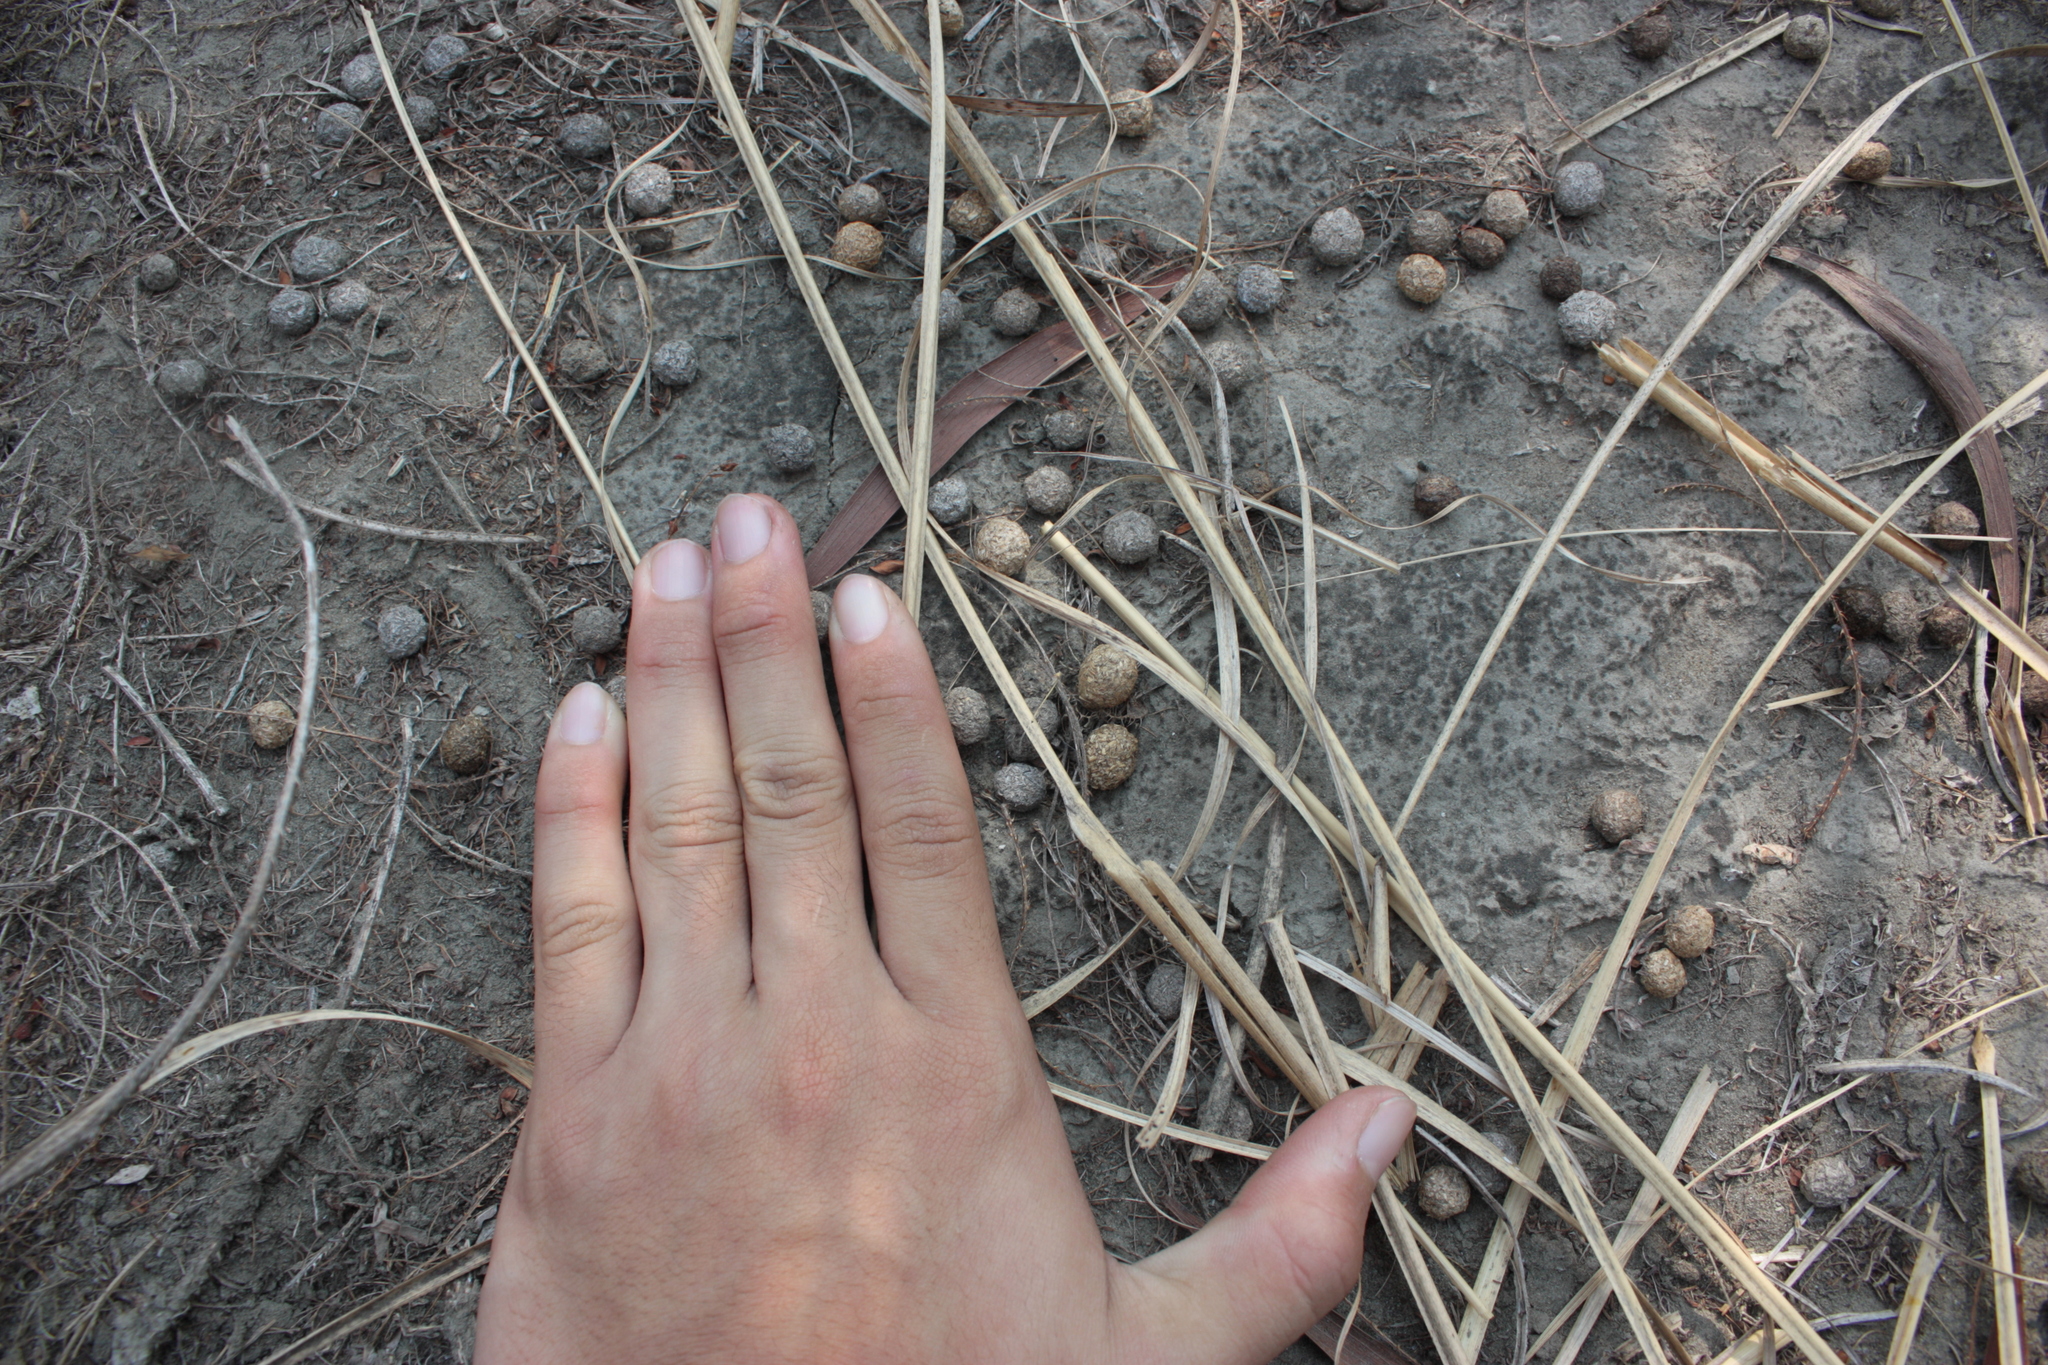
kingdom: Animalia
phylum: Chordata
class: Mammalia
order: Lagomorpha
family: Leporidae
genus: Lepus
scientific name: Lepus sinensis
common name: Chinese hare
